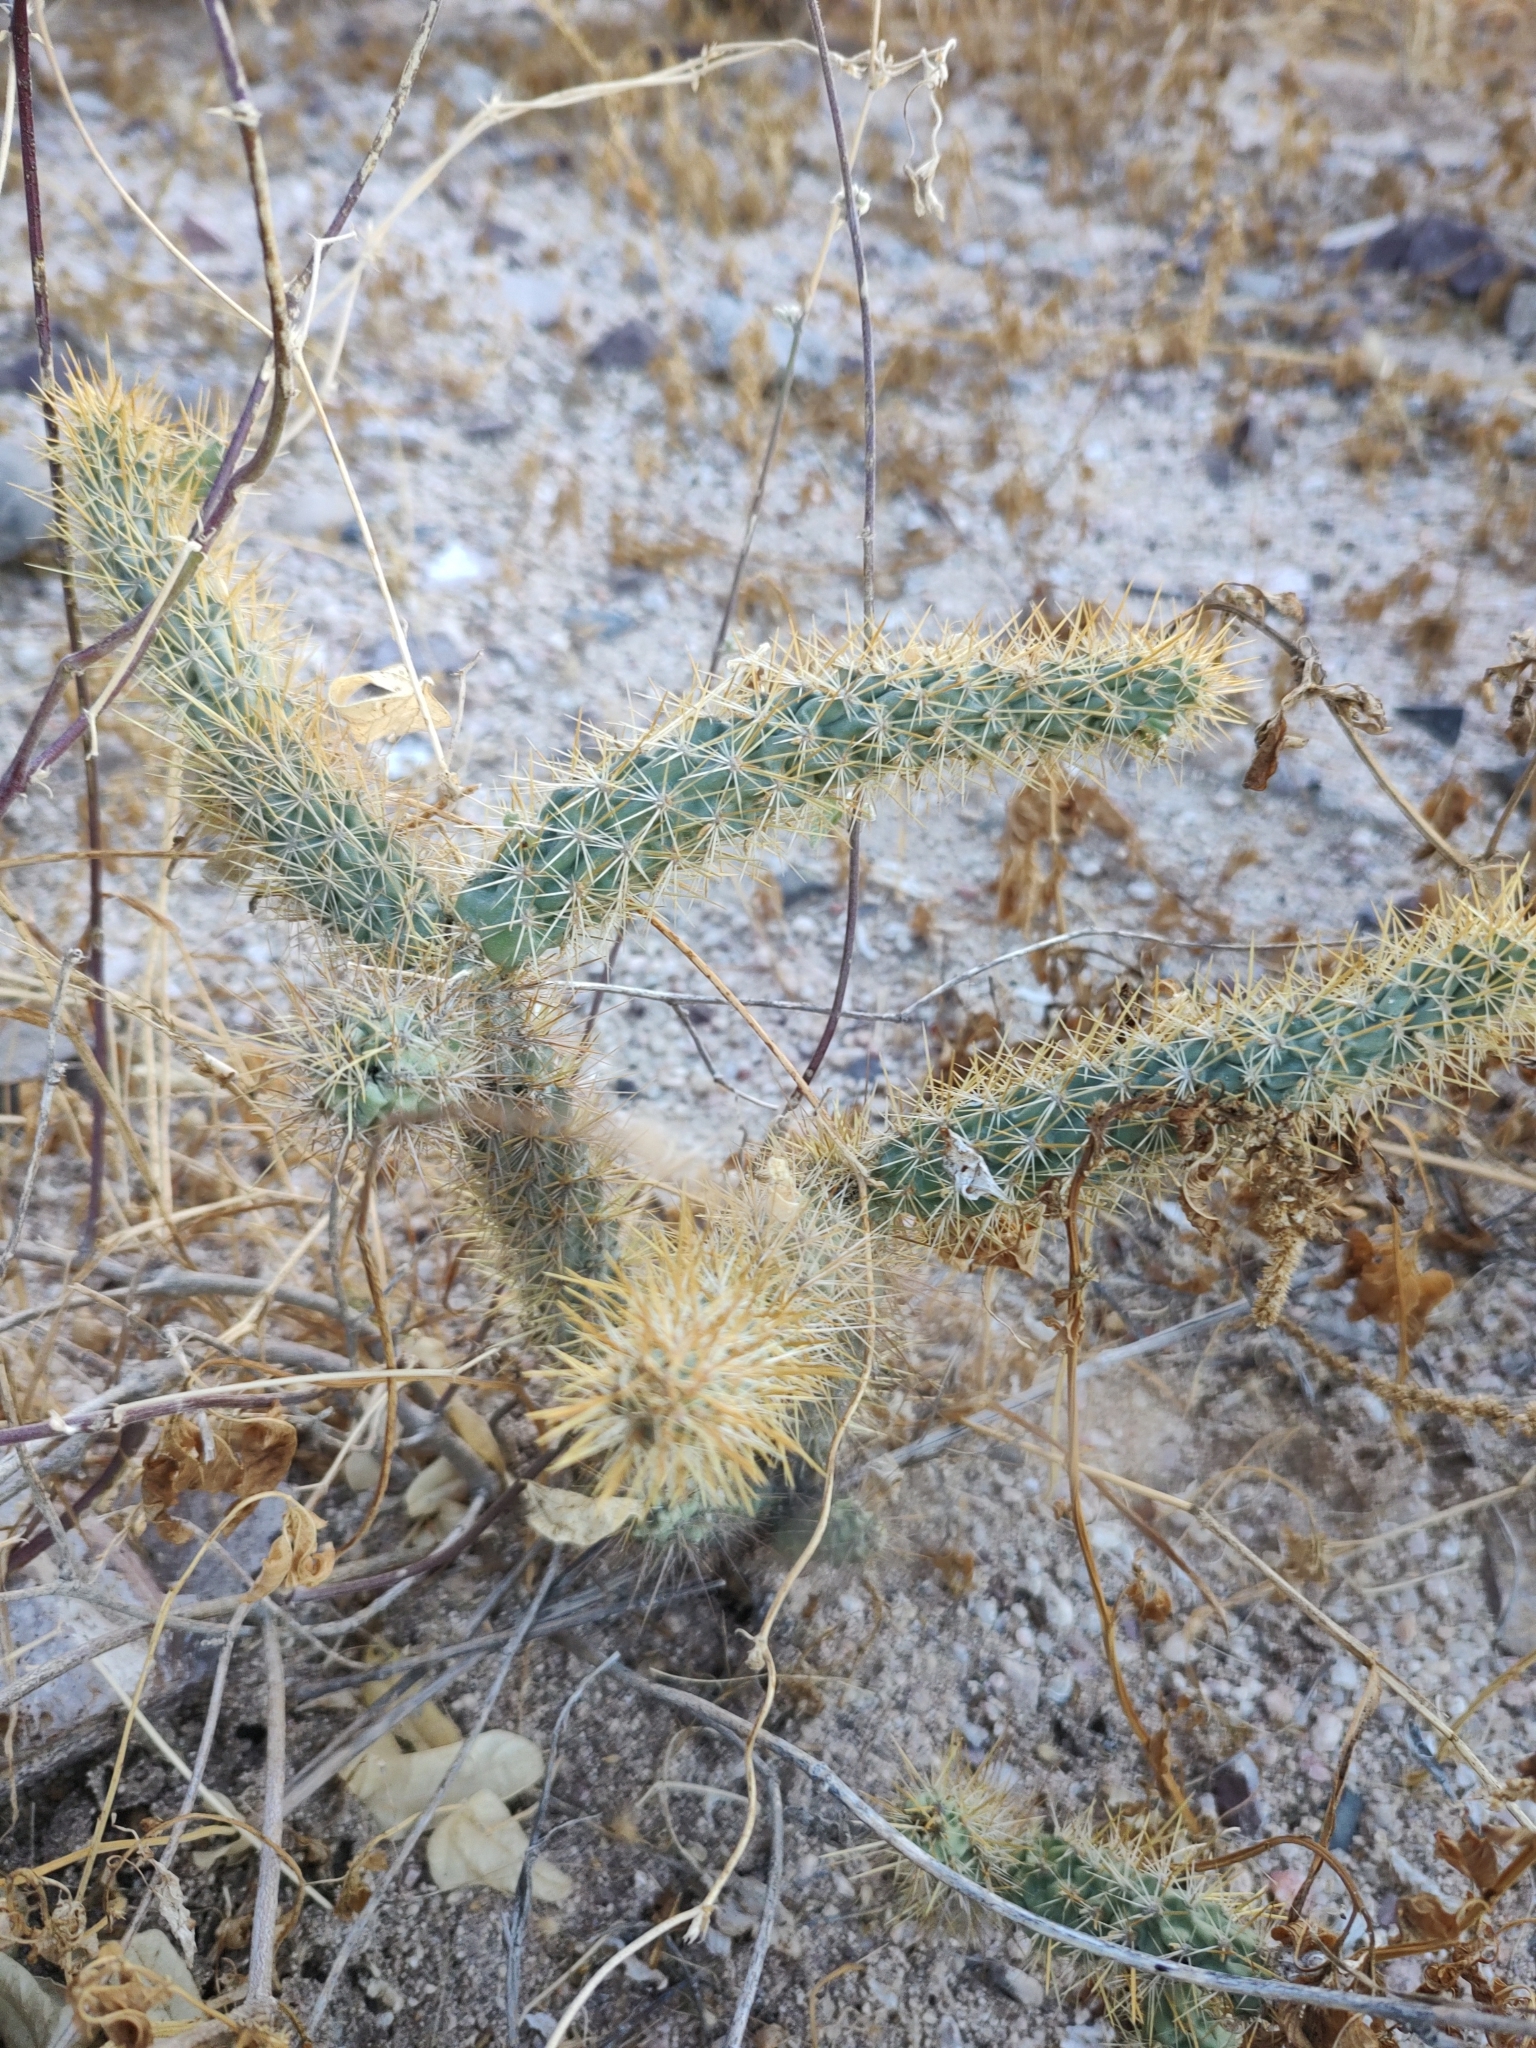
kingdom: Plantae
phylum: Tracheophyta
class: Magnoliopsida
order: Caryophyllales
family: Cactaceae
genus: Cylindropuntia
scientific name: Cylindropuntia alcahes
